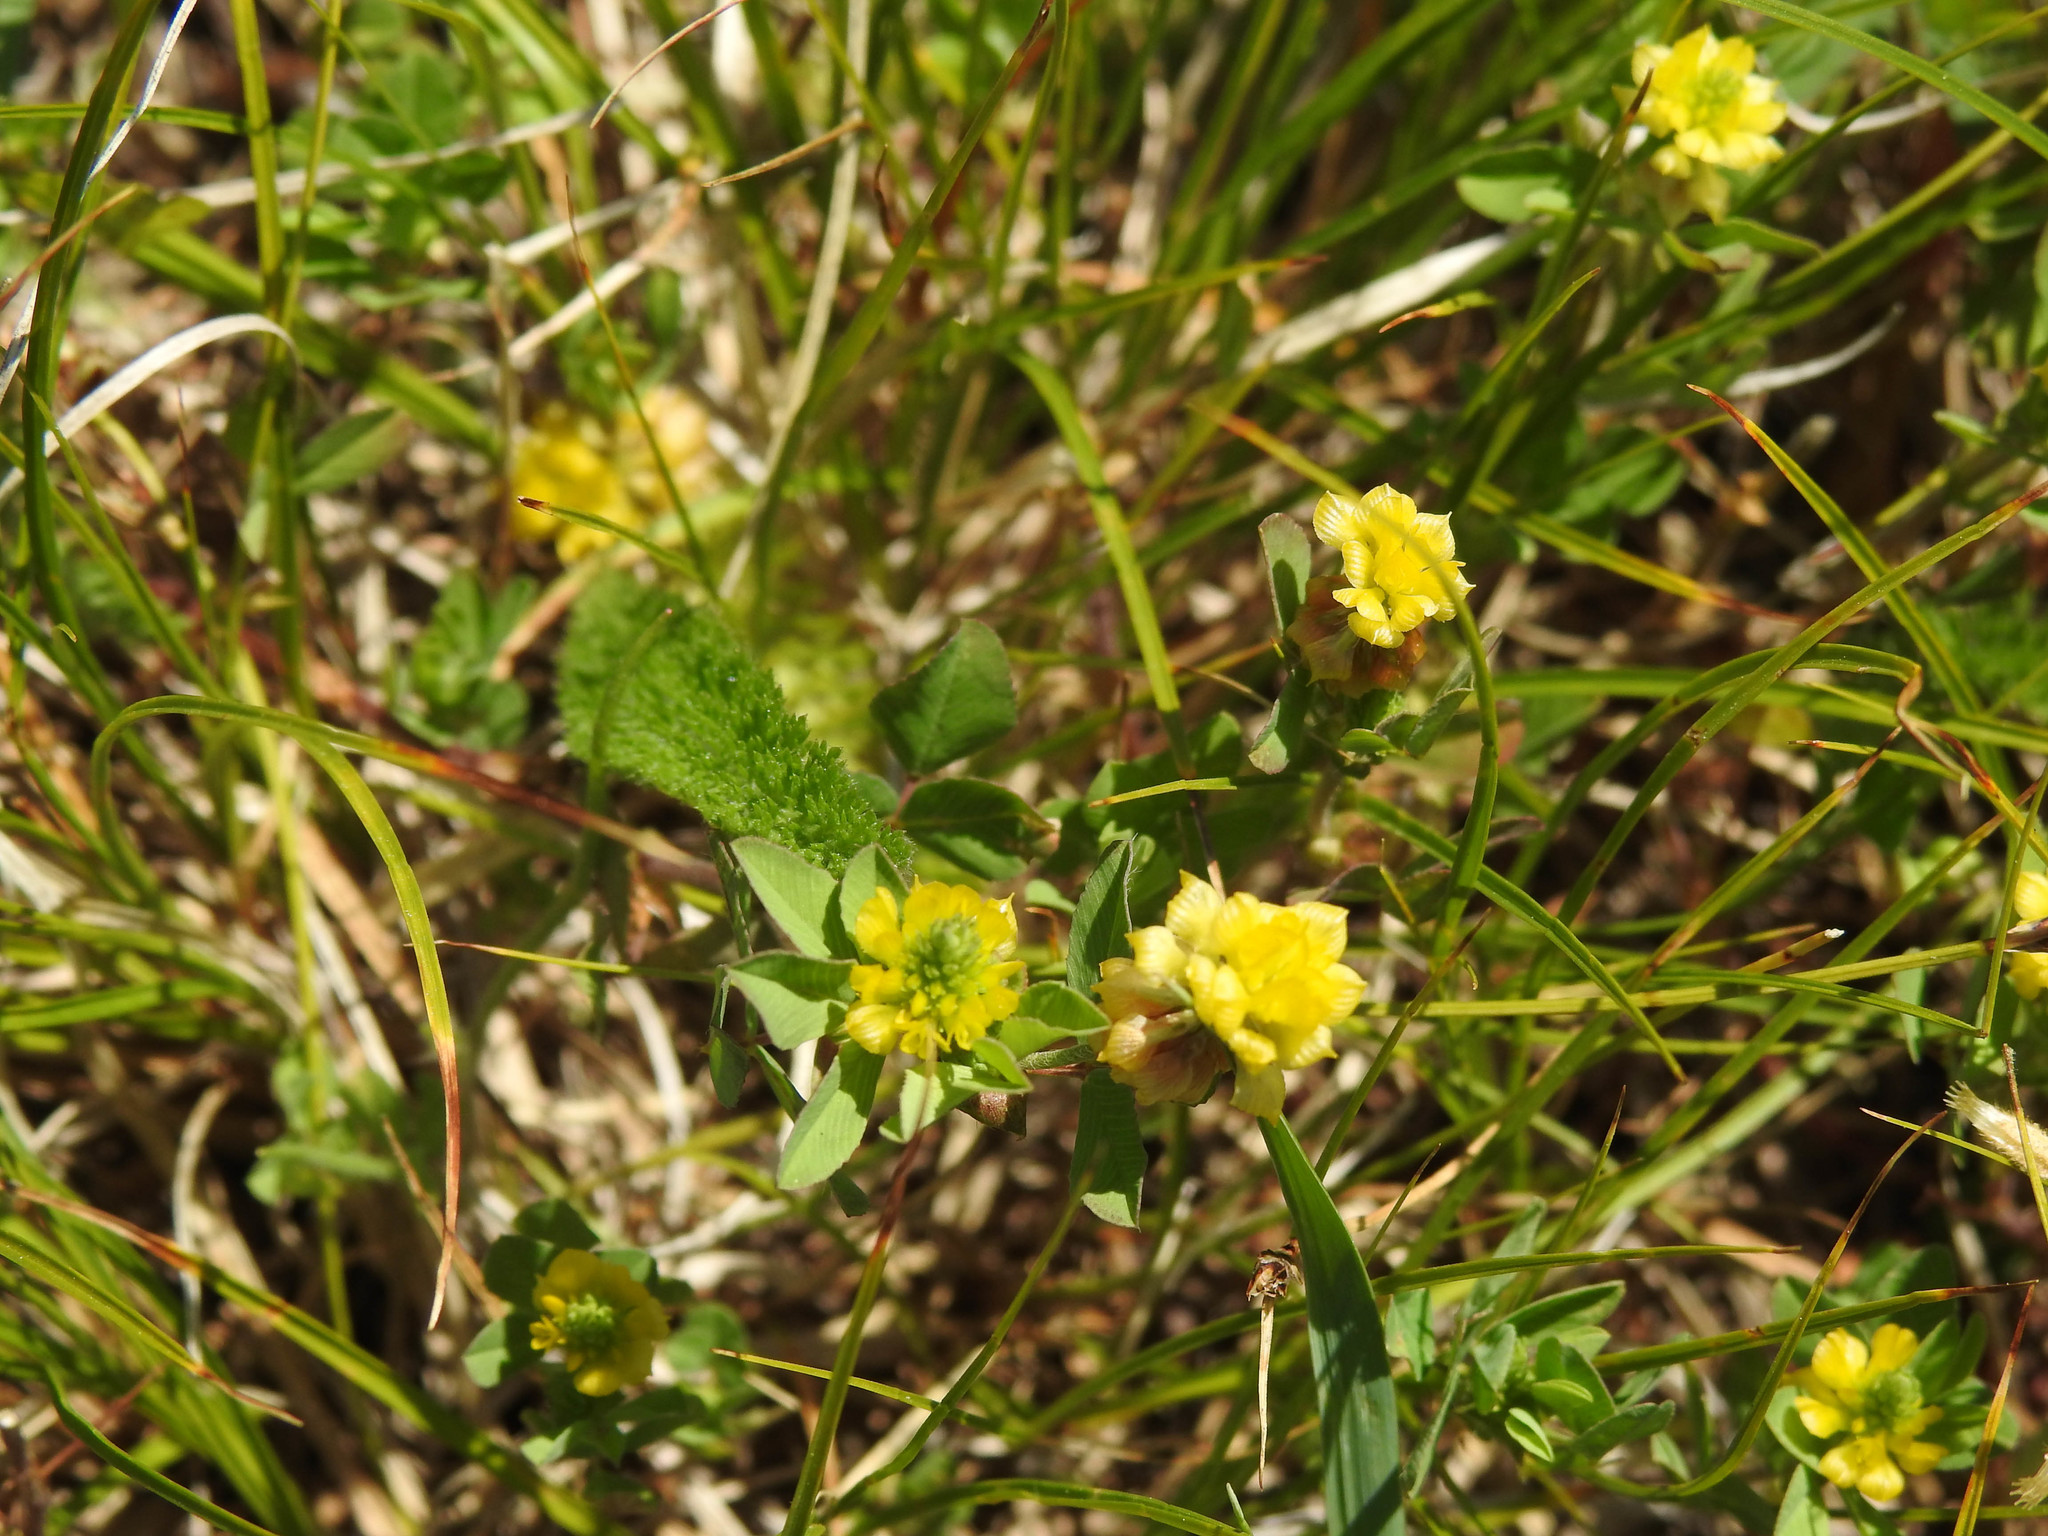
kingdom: Plantae
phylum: Tracheophyta
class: Magnoliopsida
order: Fabales
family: Fabaceae
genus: Trifolium
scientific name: Trifolium campestre
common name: Field clover
